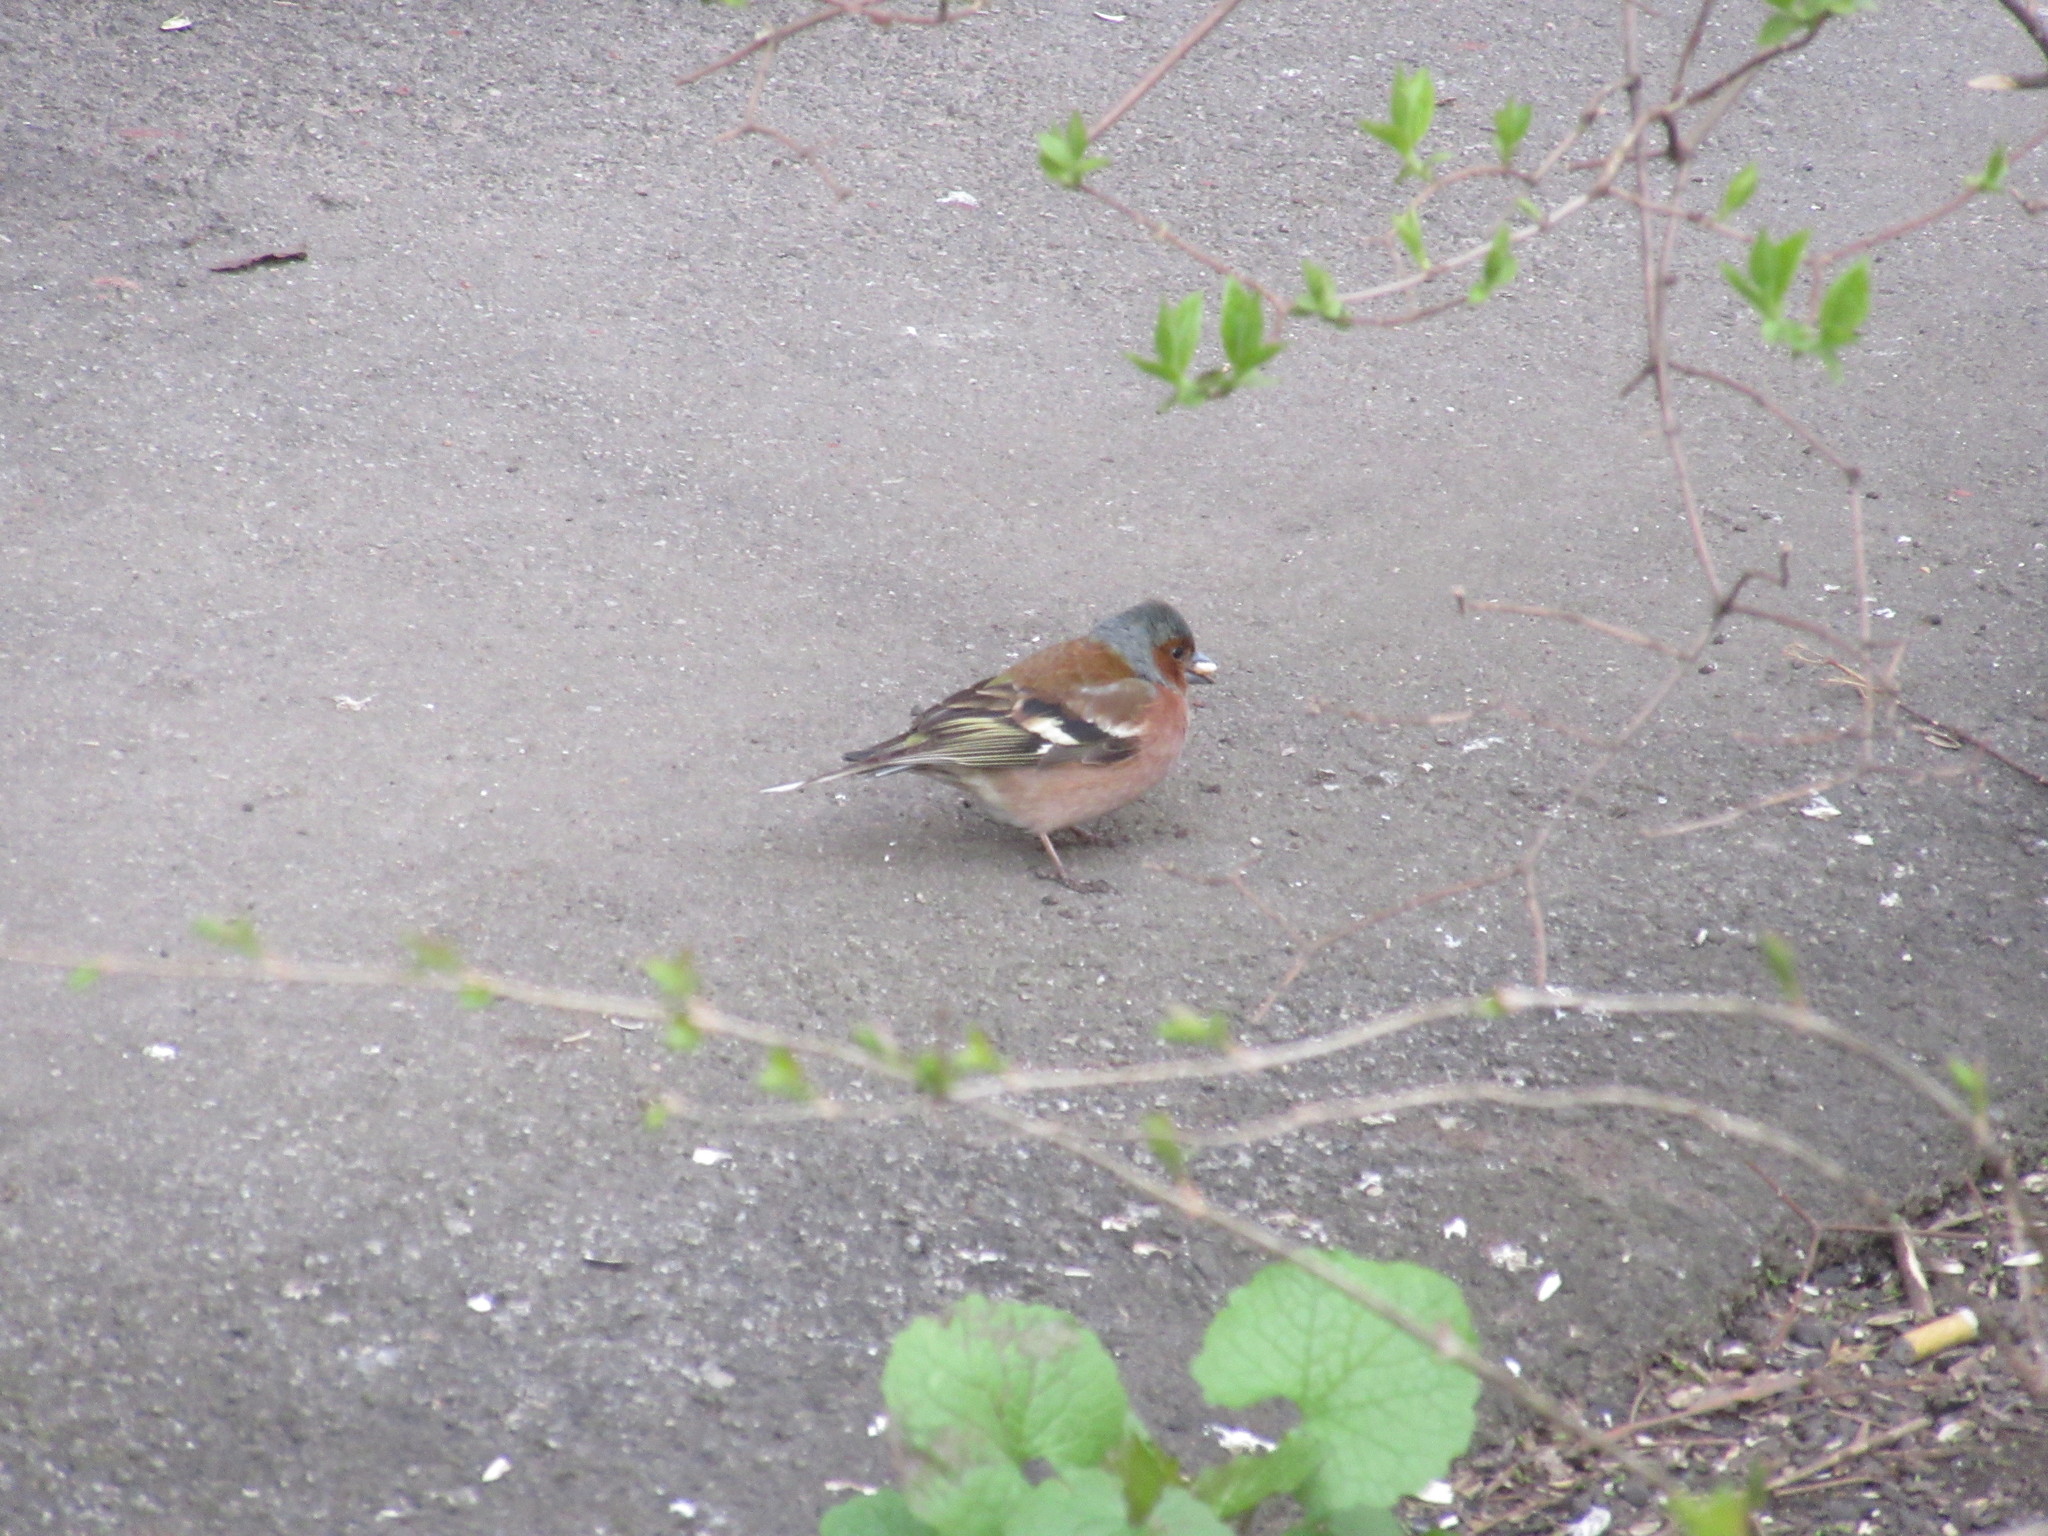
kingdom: Animalia
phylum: Chordata
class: Aves
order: Passeriformes
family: Fringillidae
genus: Fringilla
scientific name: Fringilla coelebs
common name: Common chaffinch
